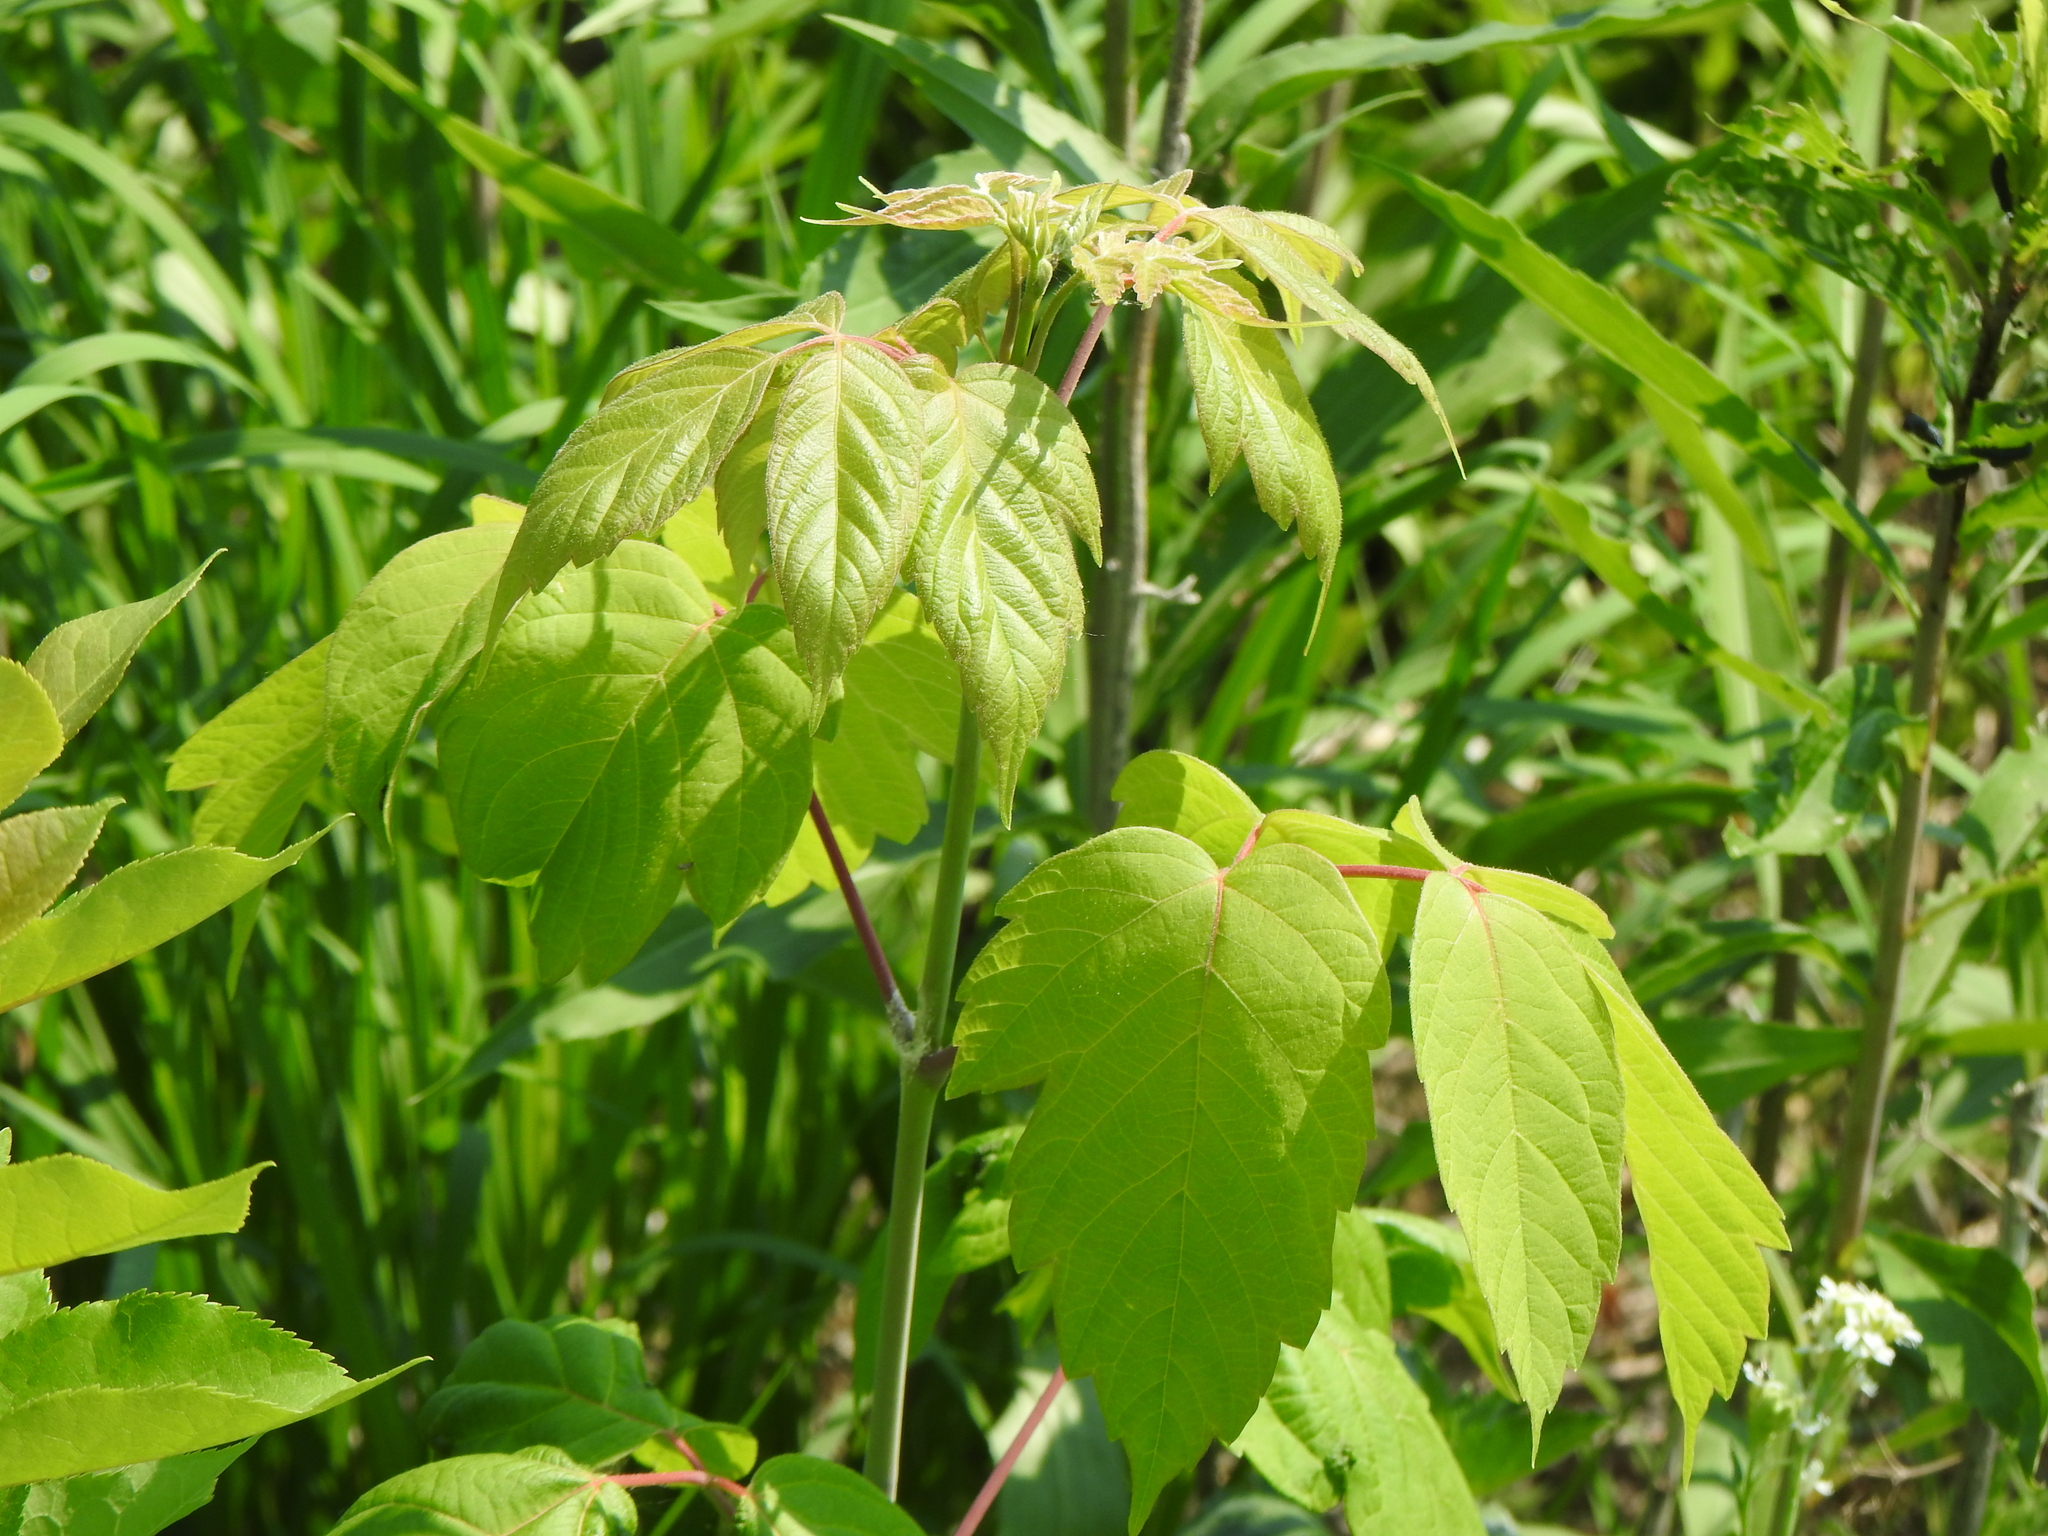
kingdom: Plantae
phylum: Tracheophyta
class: Magnoliopsida
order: Sapindales
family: Sapindaceae
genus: Acer
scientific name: Acer negundo
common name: Ashleaf maple
